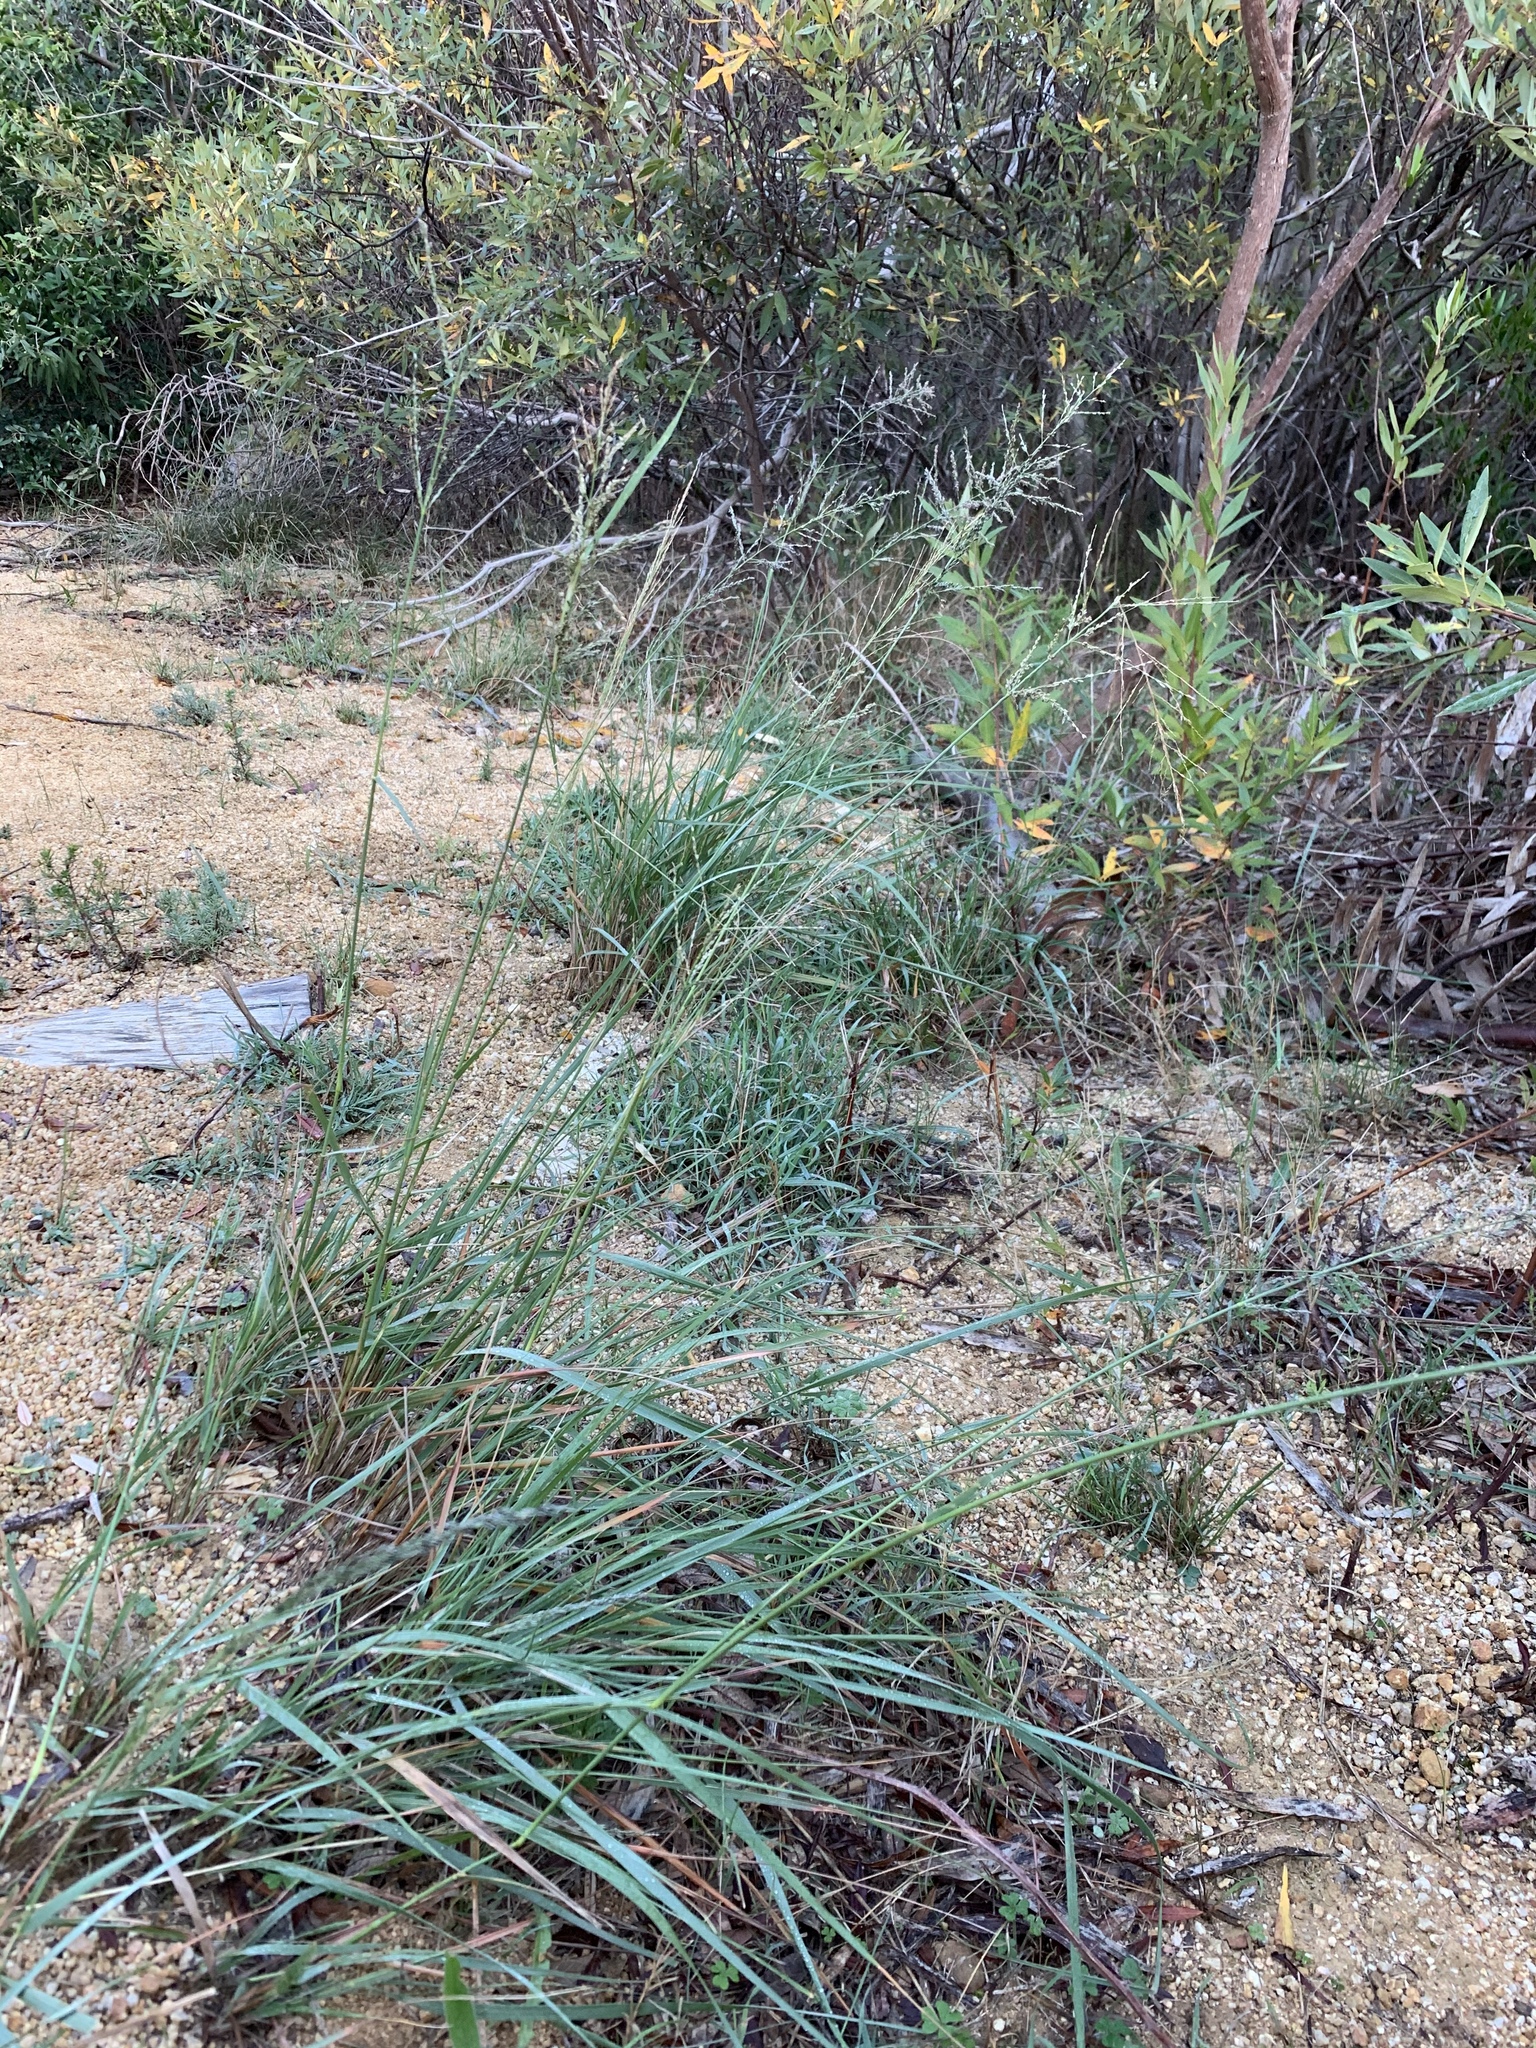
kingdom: Plantae
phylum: Tracheophyta
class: Liliopsida
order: Poales
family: Poaceae
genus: Eragrostis
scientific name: Eragrostis curvula
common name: African love-grass
